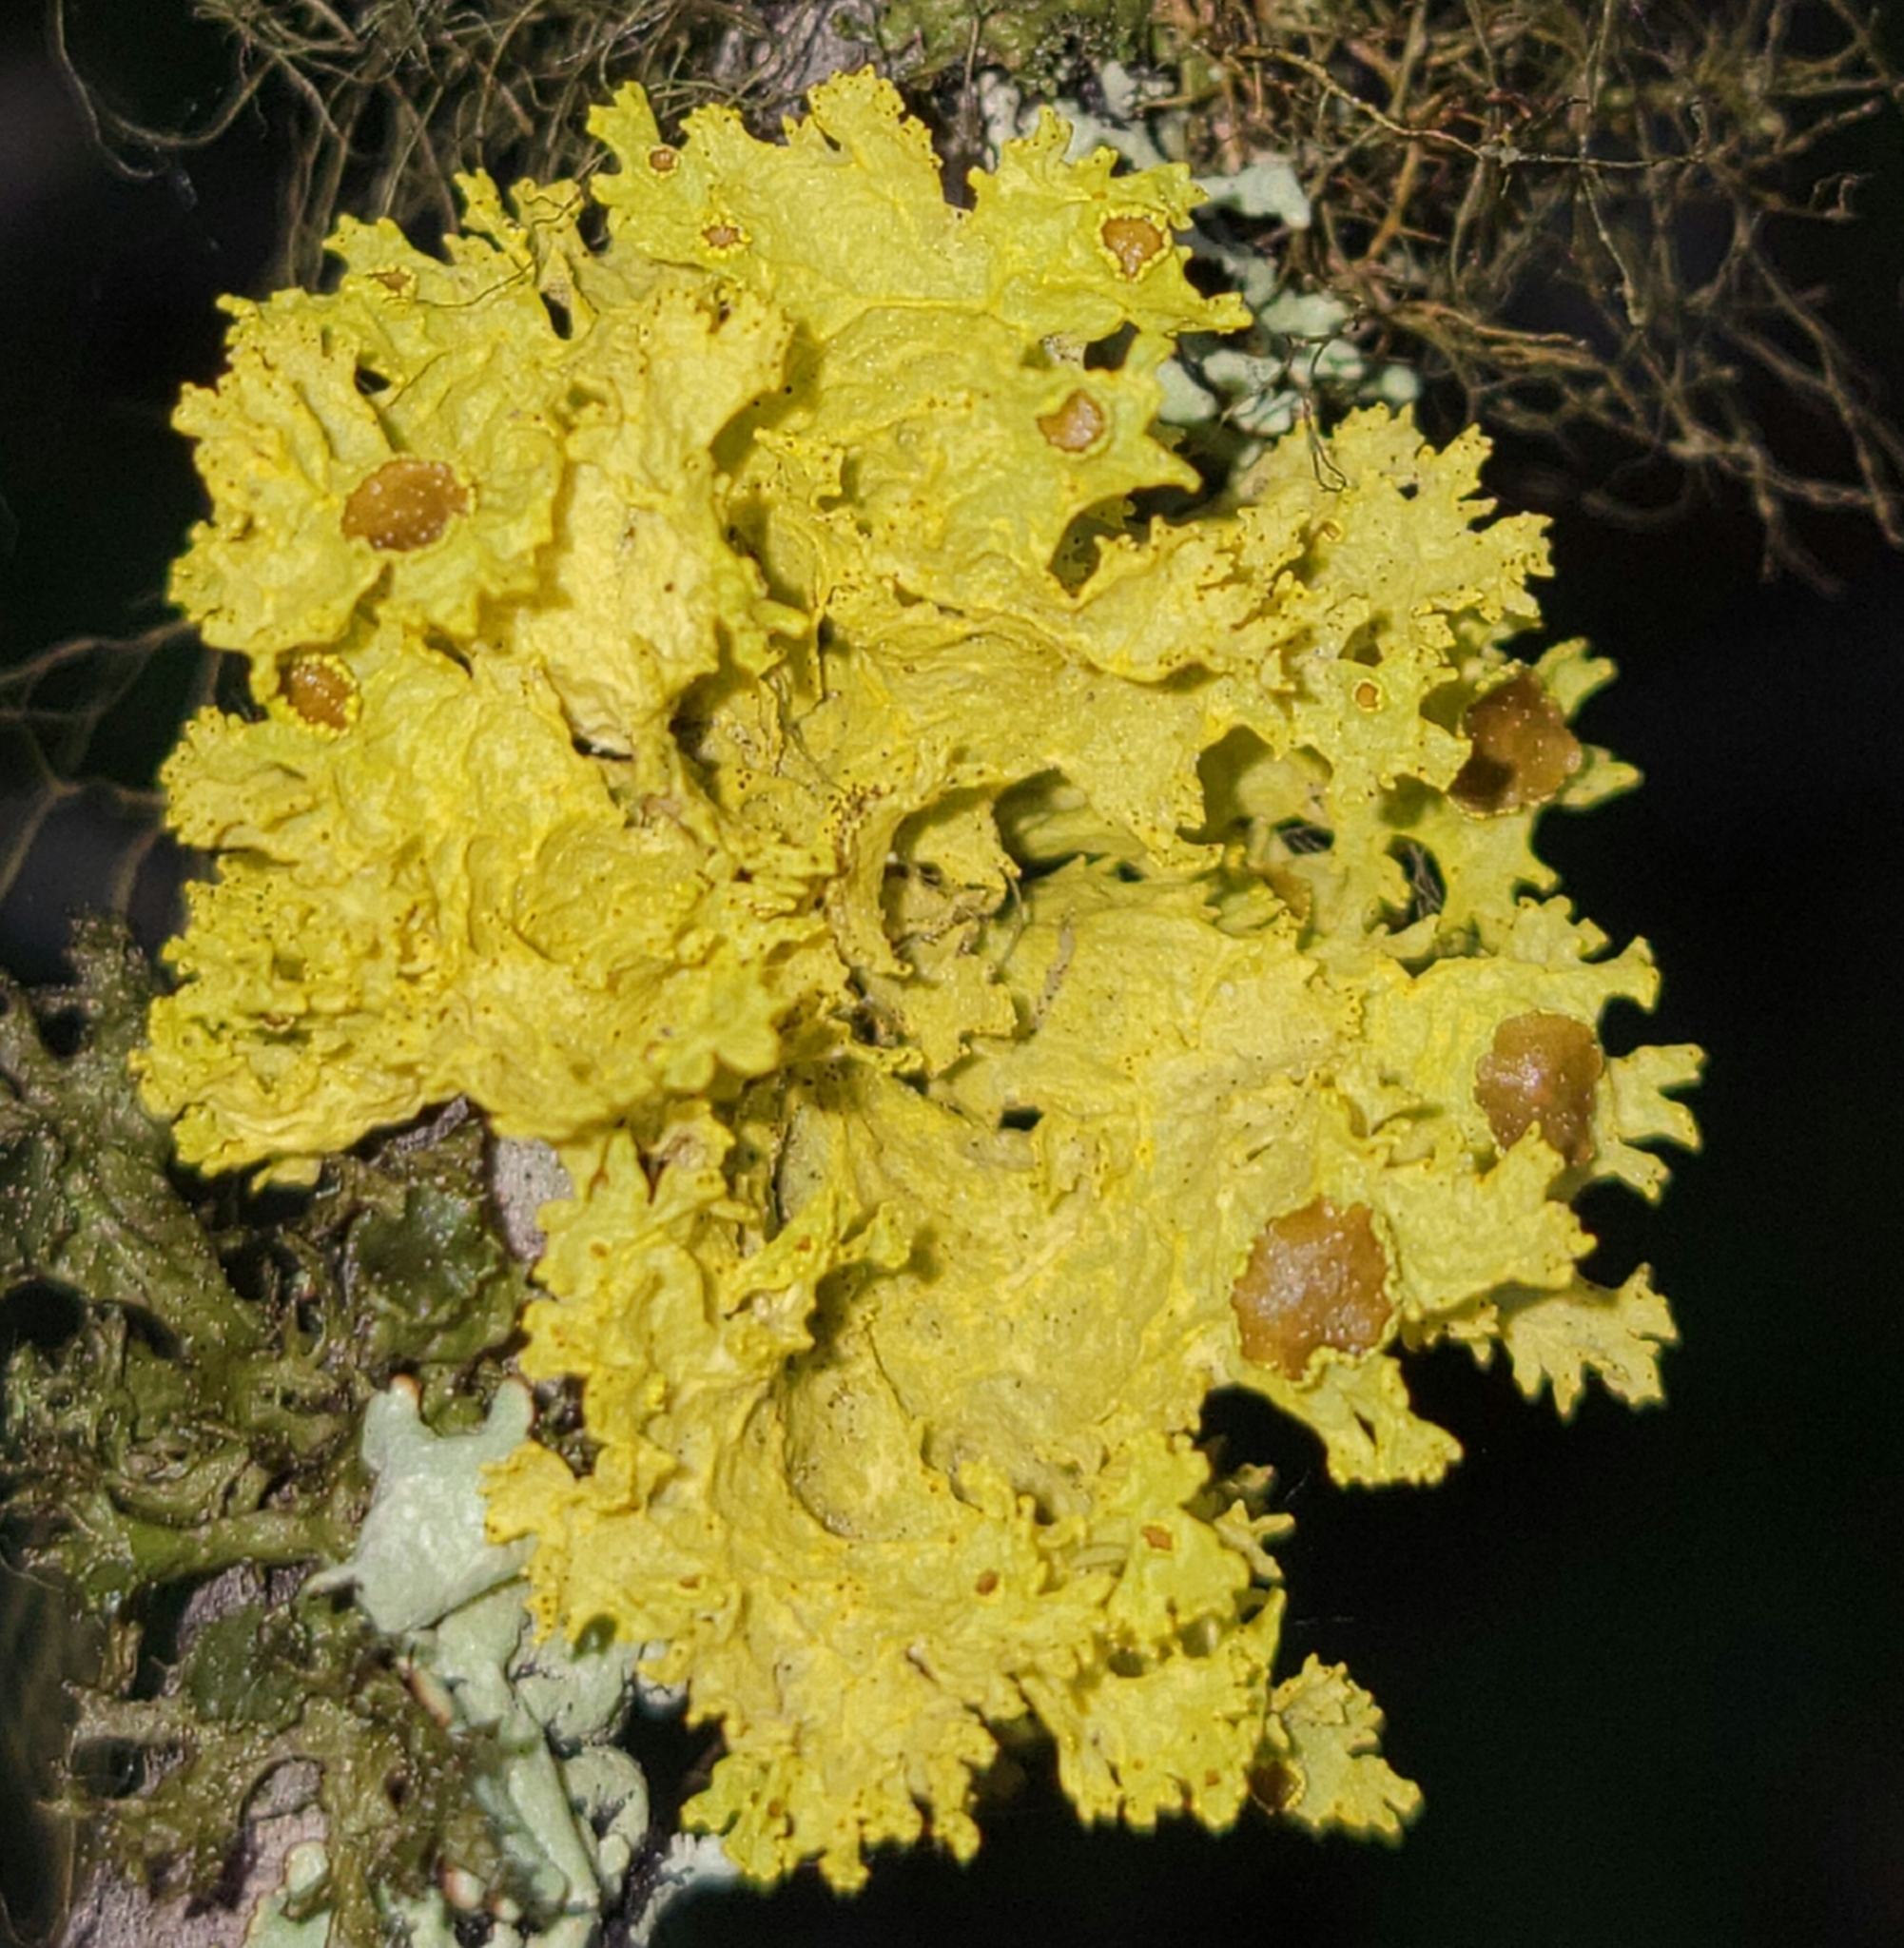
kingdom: Fungi
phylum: Ascomycota
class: Lecanoromycetes
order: Lecanorales
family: Parmeliaceae
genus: Vulpicida
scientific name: Vulpicida canadensis
